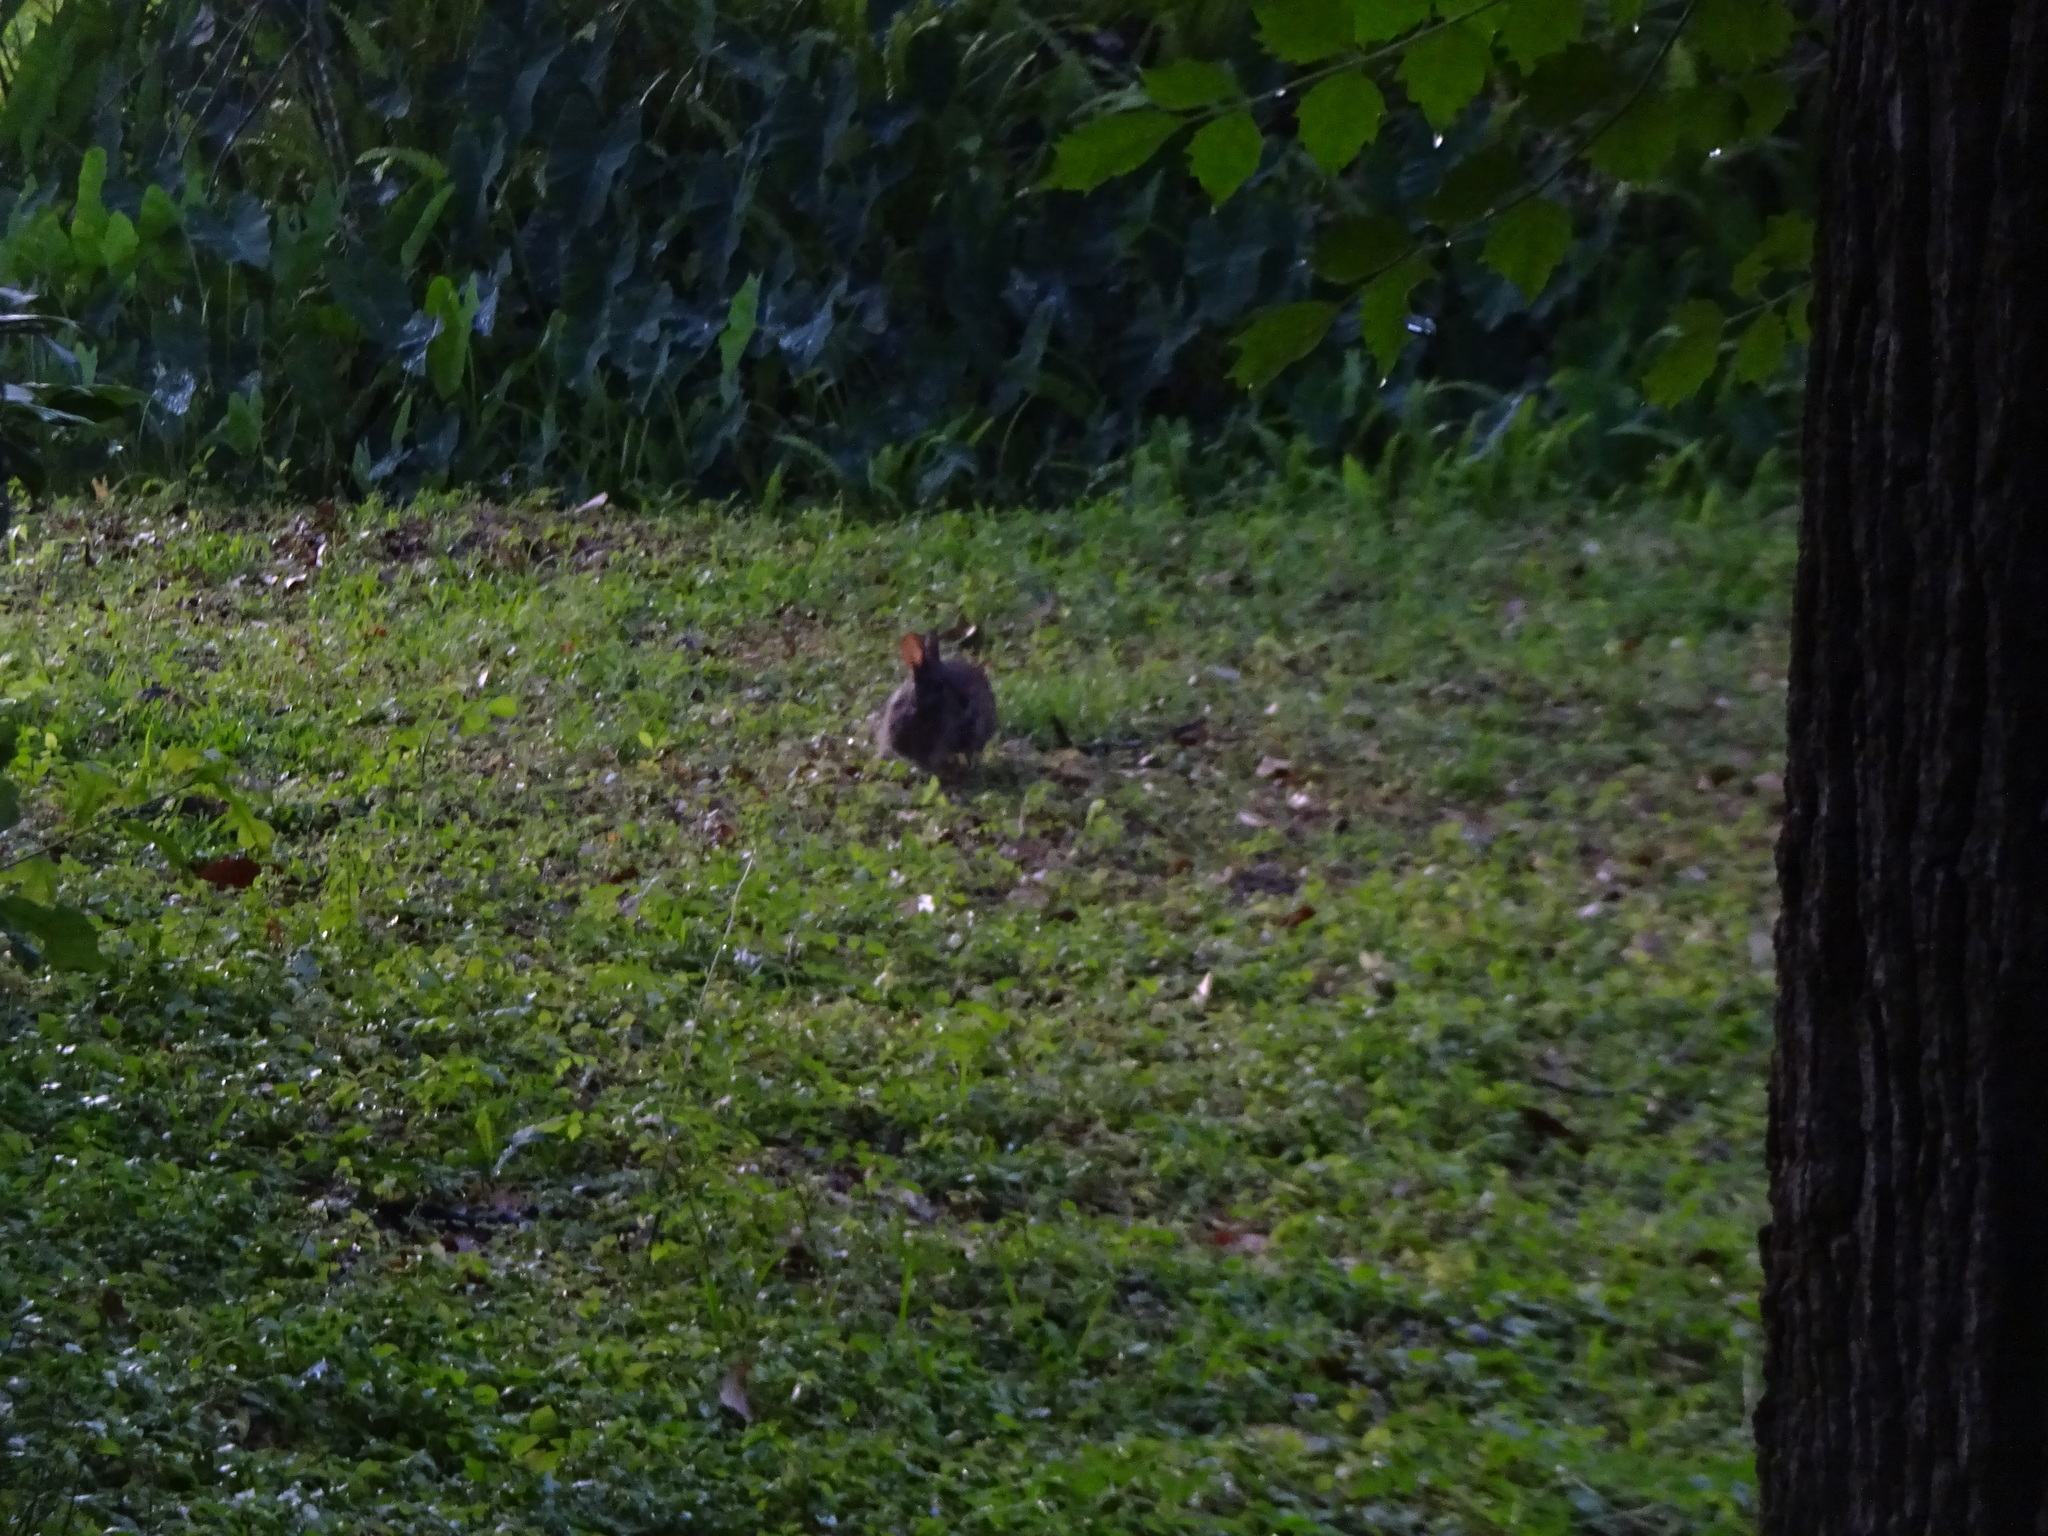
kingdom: Animalia
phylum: Chordata
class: Mammalia
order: Lagomorpha
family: Leporidae
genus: Sylvilagus
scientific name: Sylvilagus palustris
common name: Marsh rabbit
